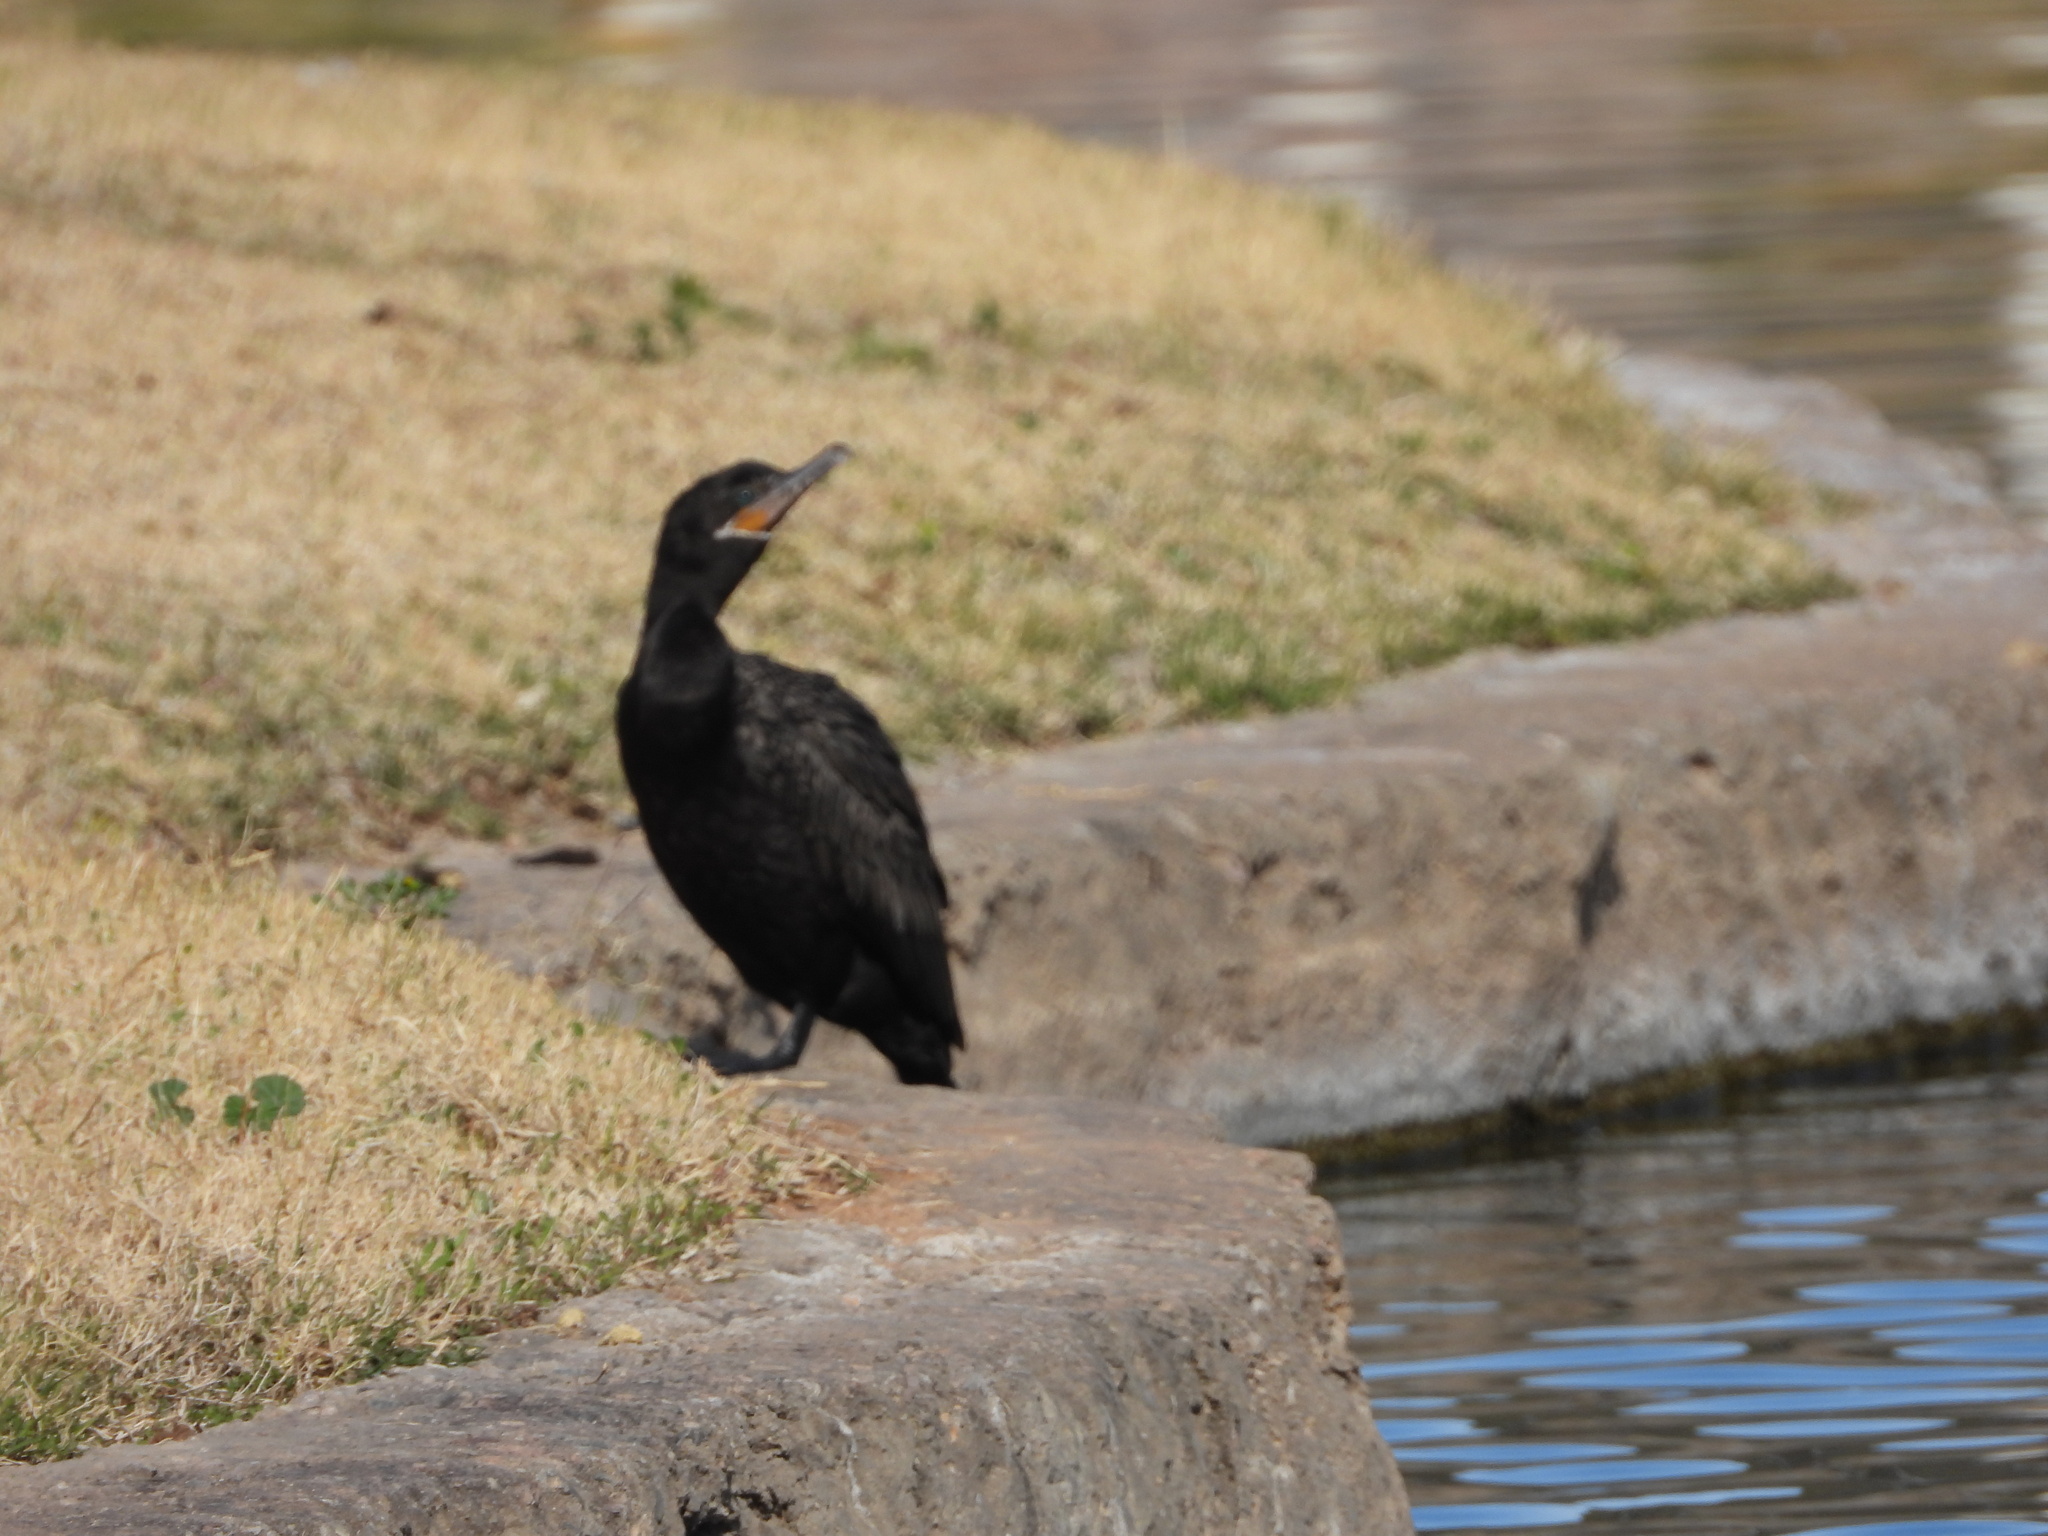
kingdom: Animalia
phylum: Chordata
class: Aves
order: Suliformes
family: Phalacrocoracidae
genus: Phalacrocorax
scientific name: Phalacrocorax brasilianus
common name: Neotropic cormorant
